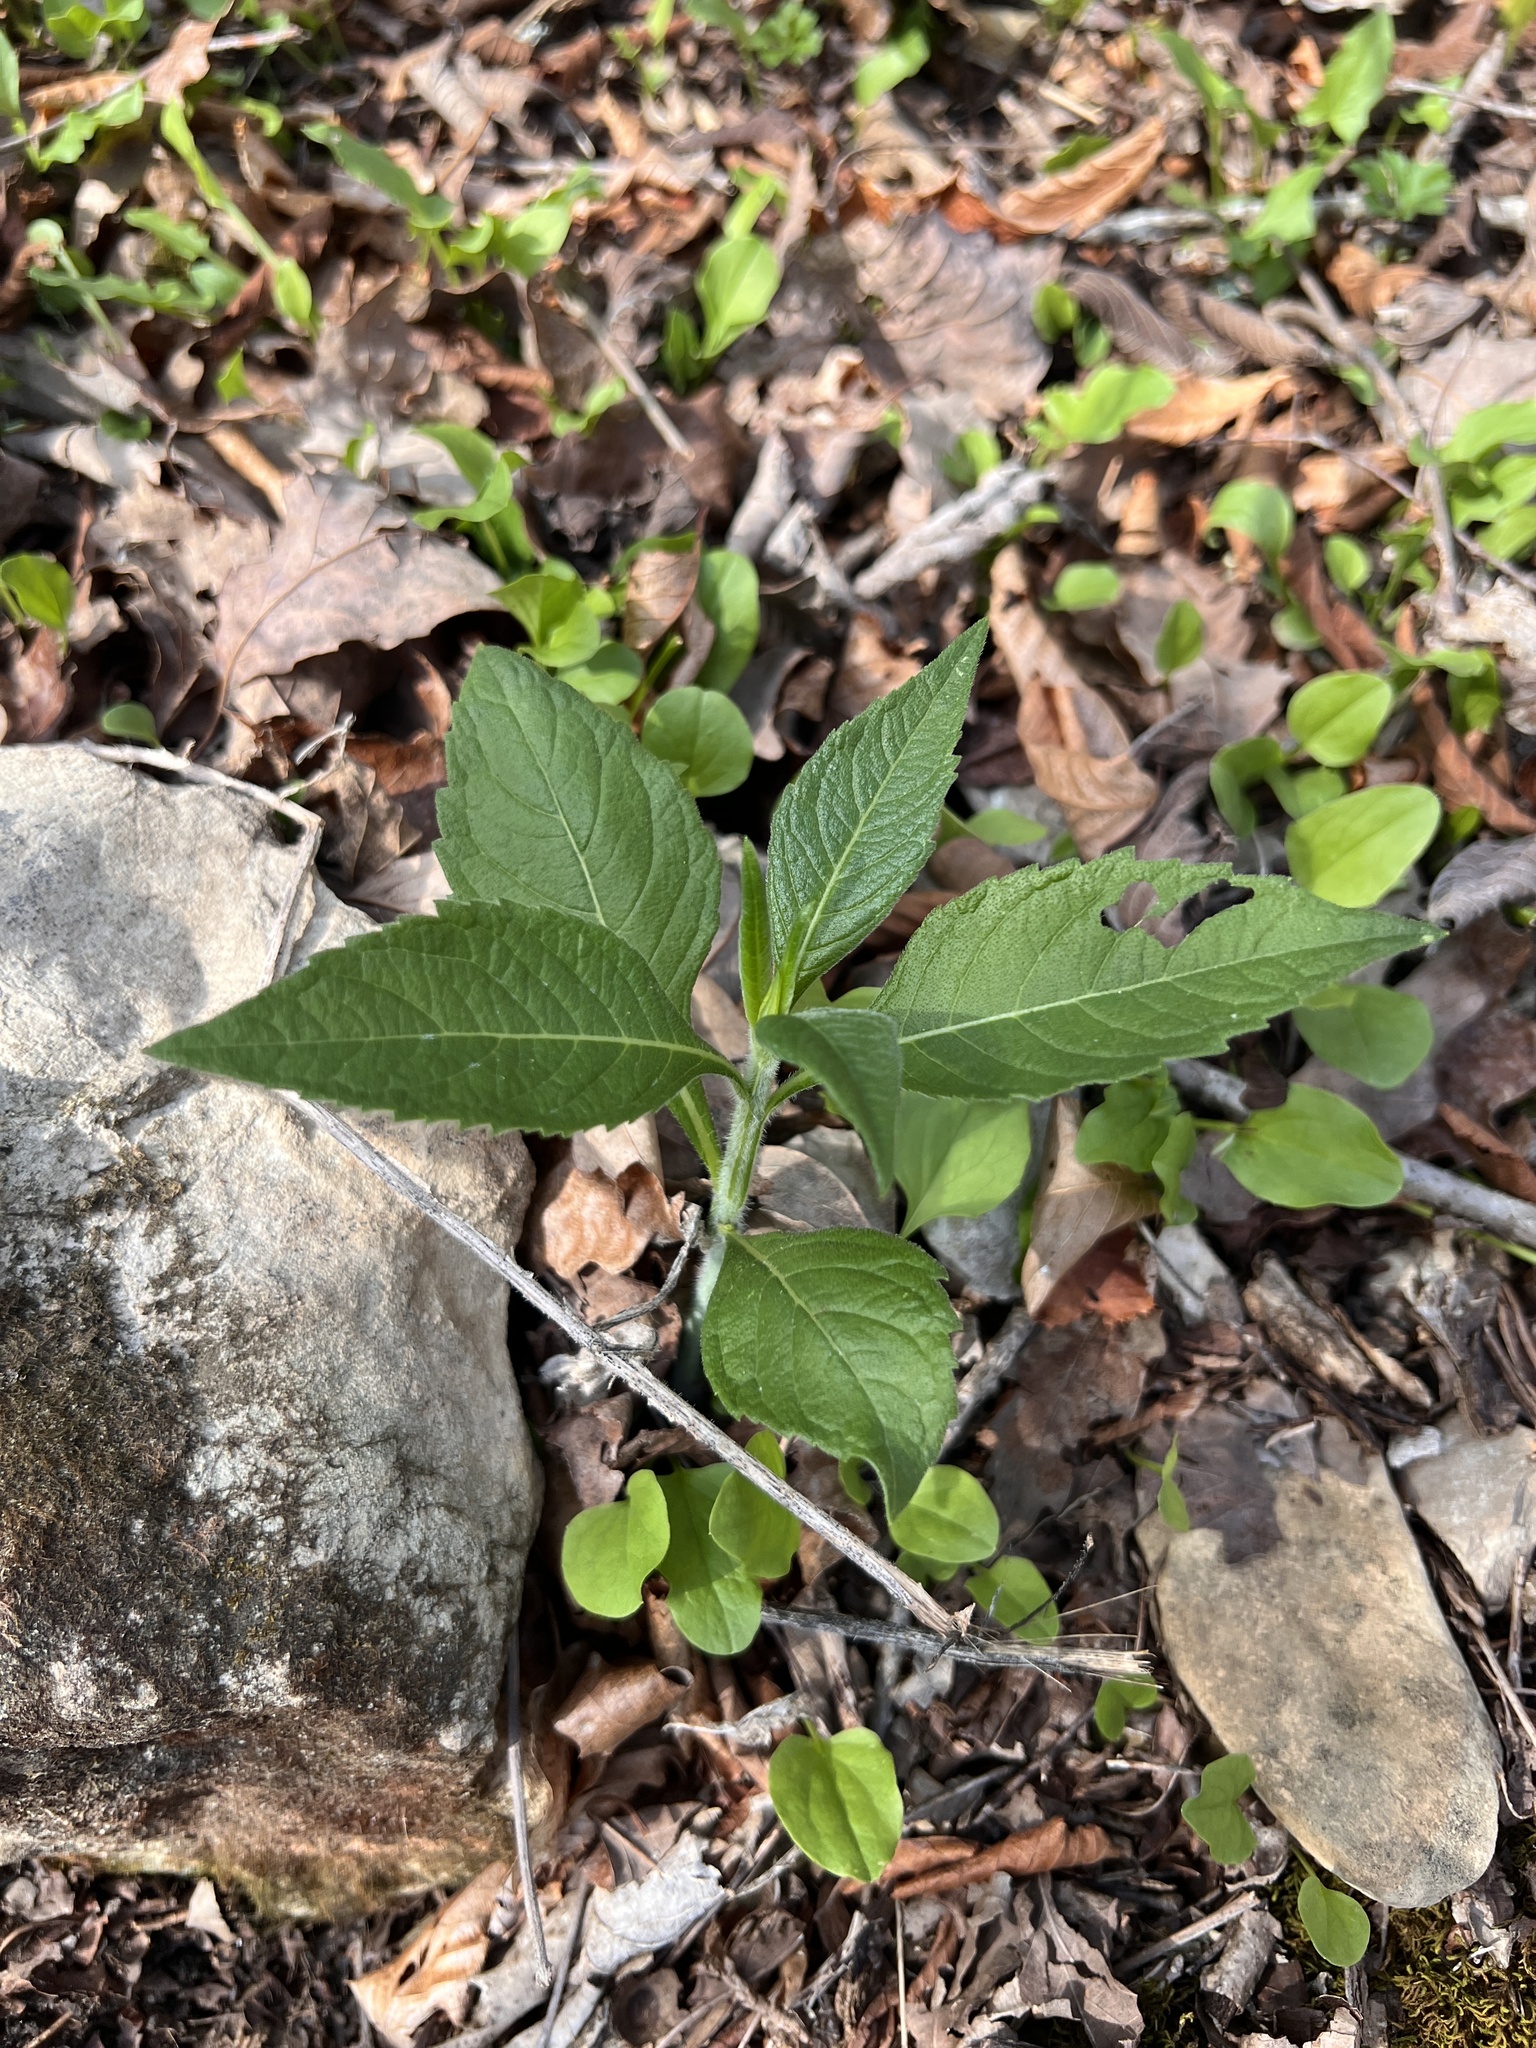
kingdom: Plantae
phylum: Tracheophyta
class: Magnoliopsida
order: Asterales
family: Asteraceae
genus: Verbesina
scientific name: Verbesina alternifolia
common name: Wingstem
